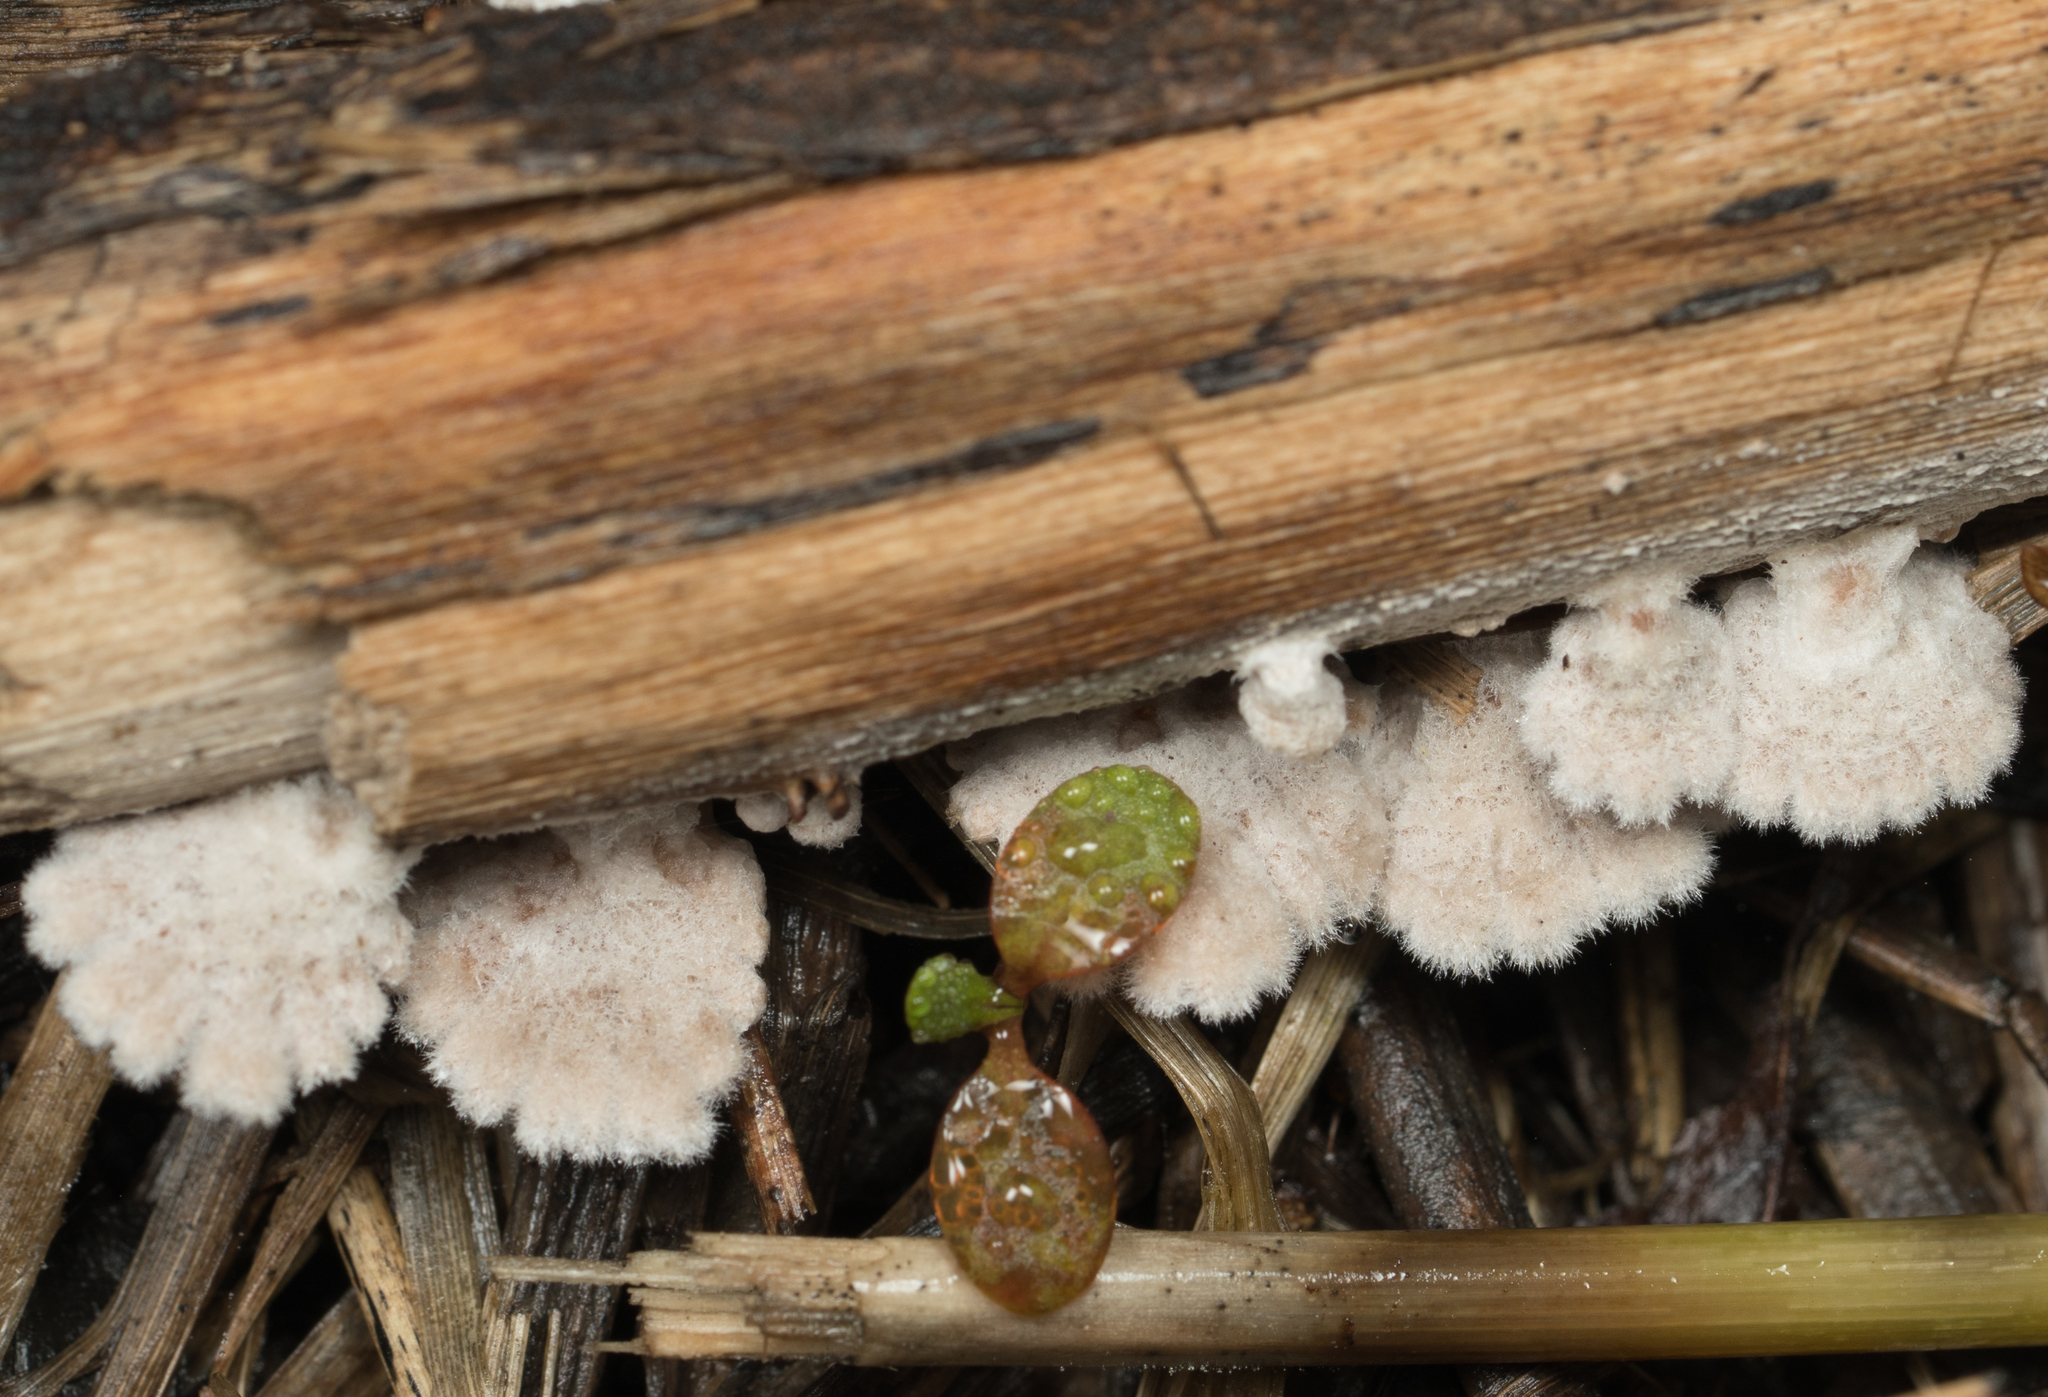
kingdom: Fungi
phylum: Basidiomycota
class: Agaricomycetes
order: Agaricales
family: Schizophyllaceae
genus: Schizophyllum
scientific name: Schizophyllum commune
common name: Common porecrust
